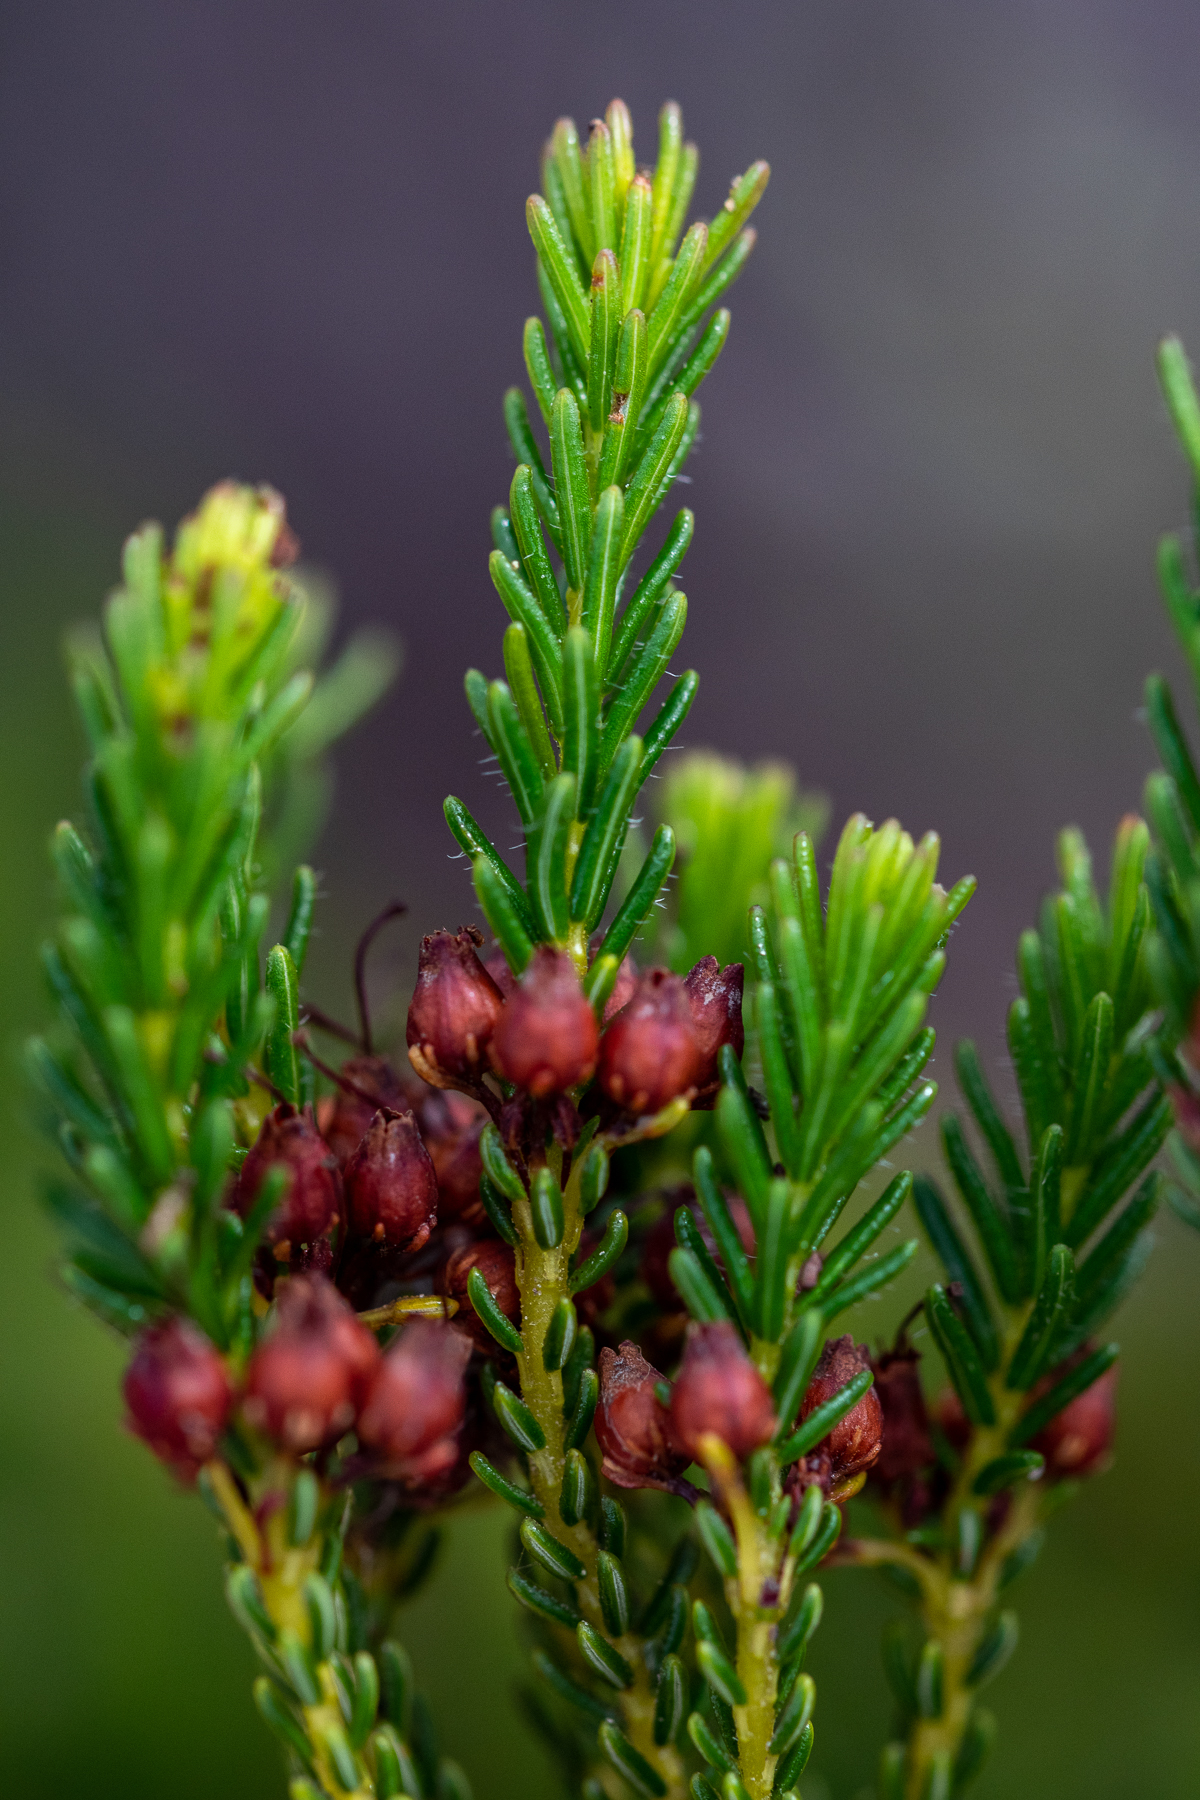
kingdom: Plantae
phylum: Tracheophyta
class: Magnoliopsida
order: Ericales
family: Ericaceae
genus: Erica
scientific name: Erica ustulescens
